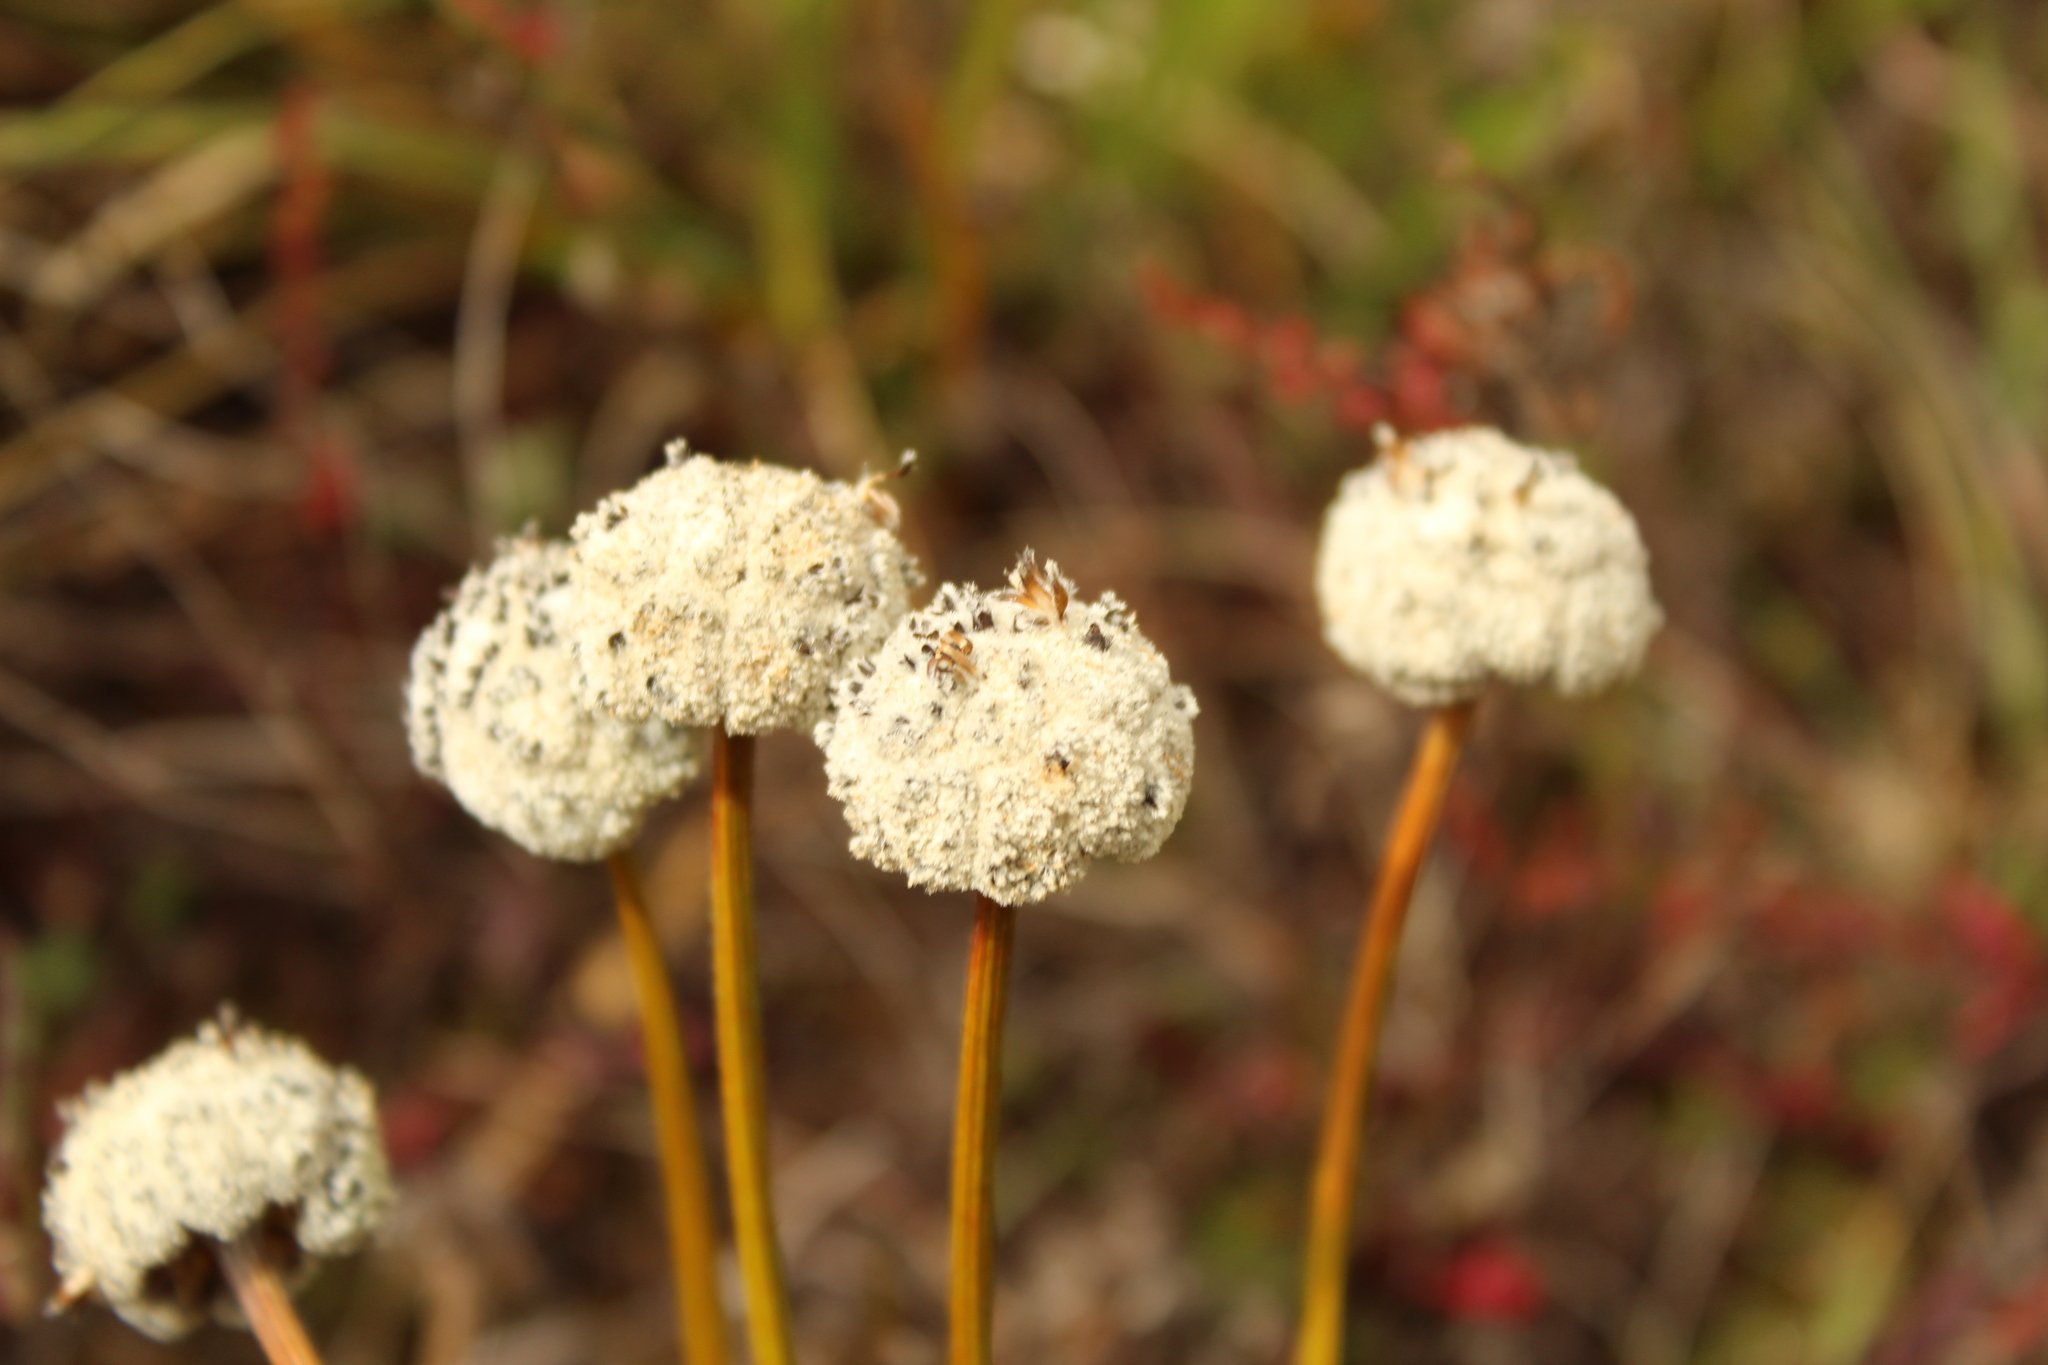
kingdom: Plantae
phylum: Tracheophyta
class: Liliopsida
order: Poales
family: Eriocaulaceae
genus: Paepalanthus
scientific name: Paepalanthus alpinus
